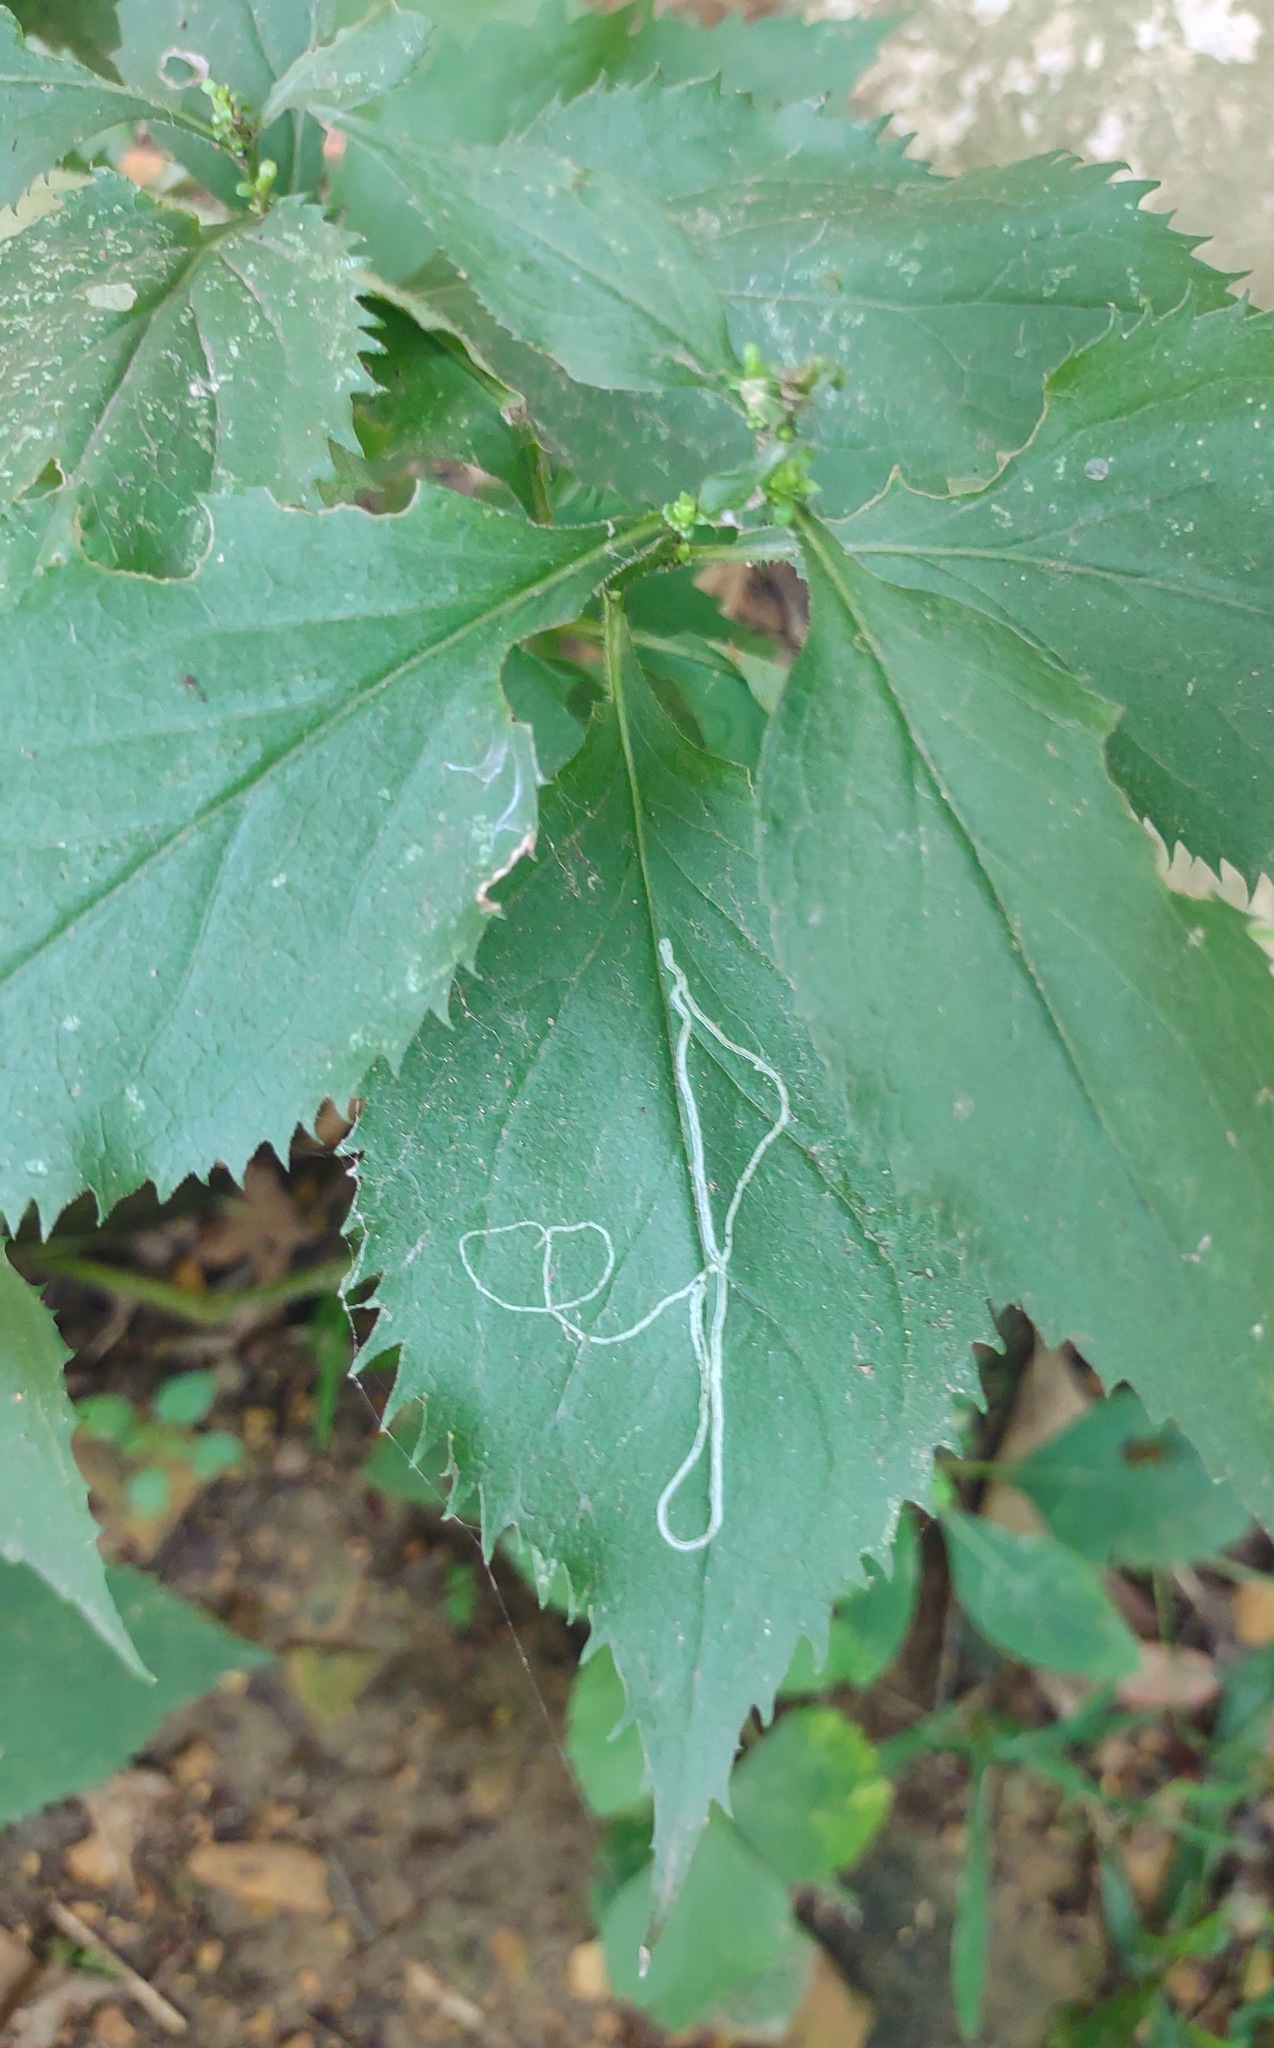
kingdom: Animalia
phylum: Arthropoda
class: Insecta
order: Diptera
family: Agromyzidae
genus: Ophiomyia
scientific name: Ophiomyia maura
